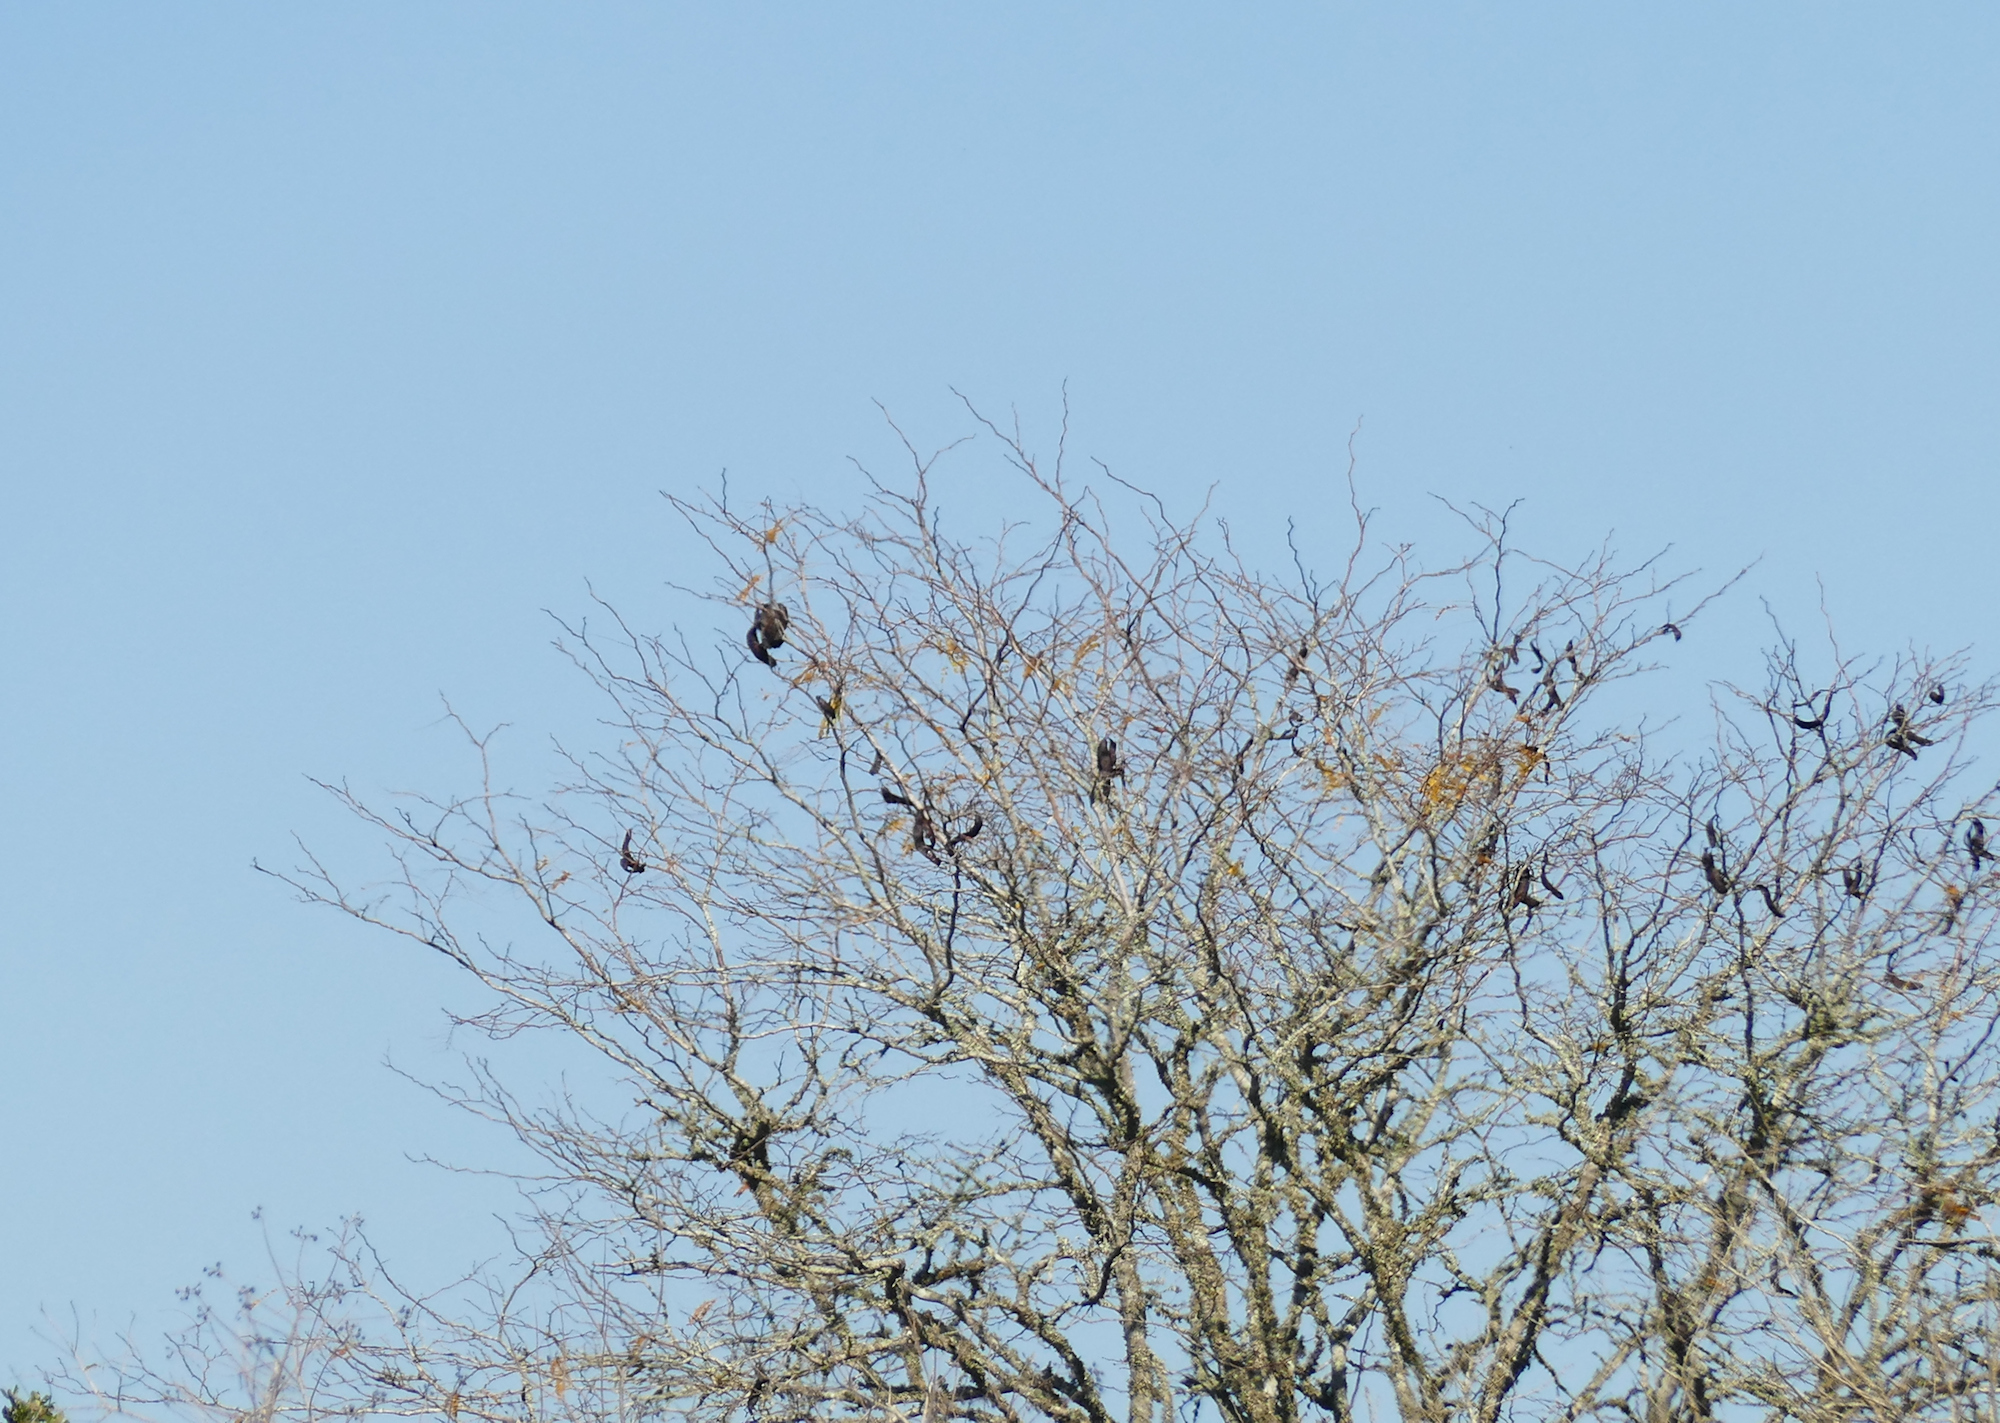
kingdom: Plantae
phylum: Tracheophyta
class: Magnoliopsida
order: Fabales
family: Fabaceae
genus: Gleditsia
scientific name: Gleditsia triacanthos
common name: Common honeylocust
